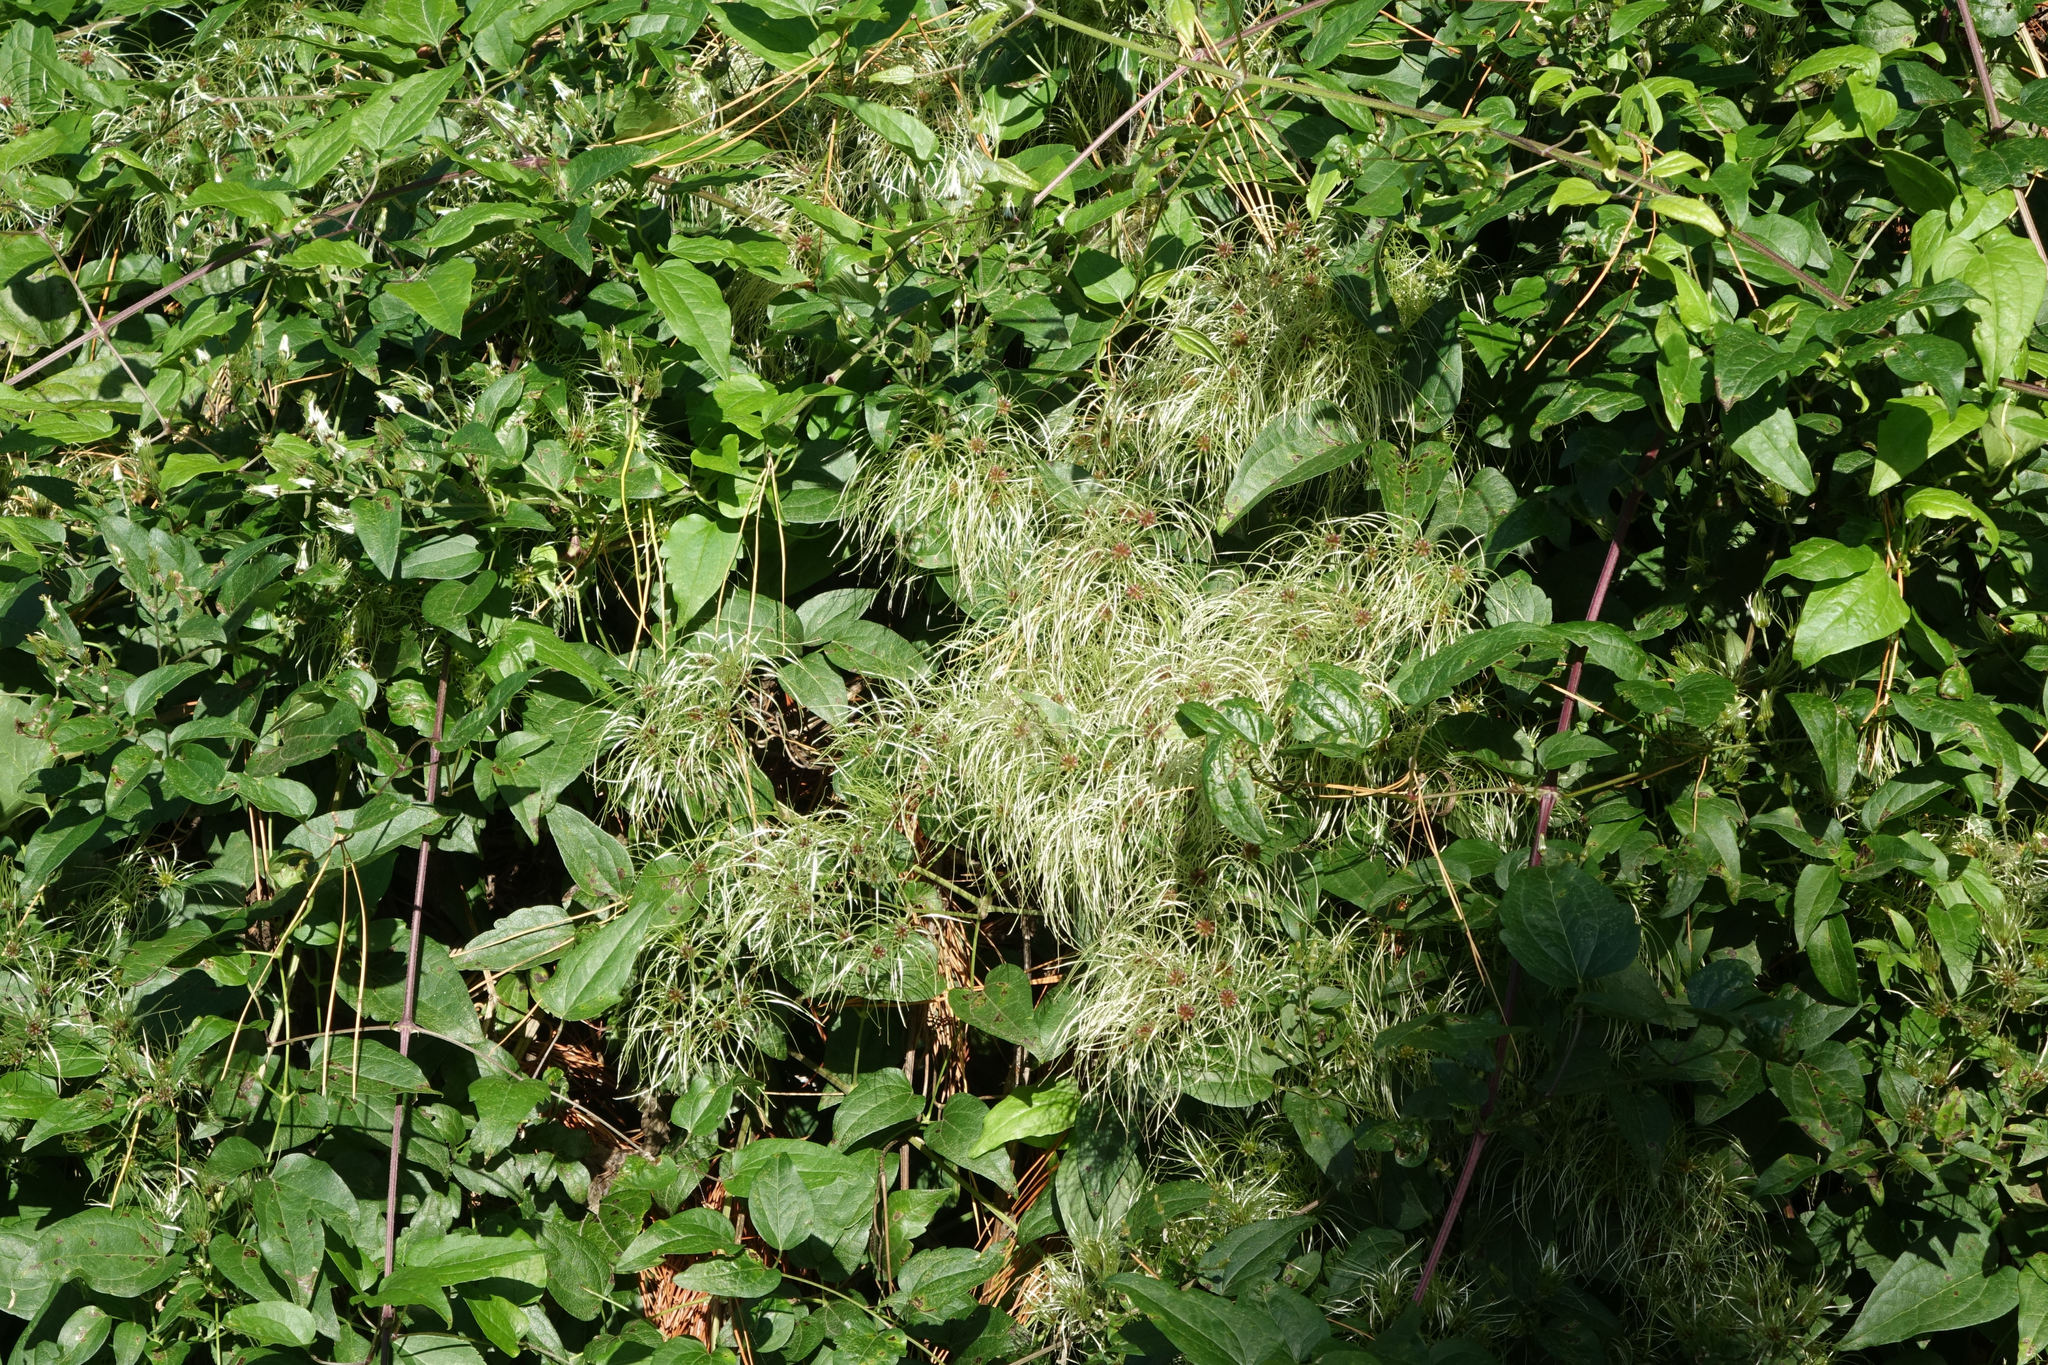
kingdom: Plantae
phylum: Tracheophyta
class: Magnoliopsida
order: Ranunculales
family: Ranunculaceae
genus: Clematis
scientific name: Clematis vitalba
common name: Evergreen clematis
